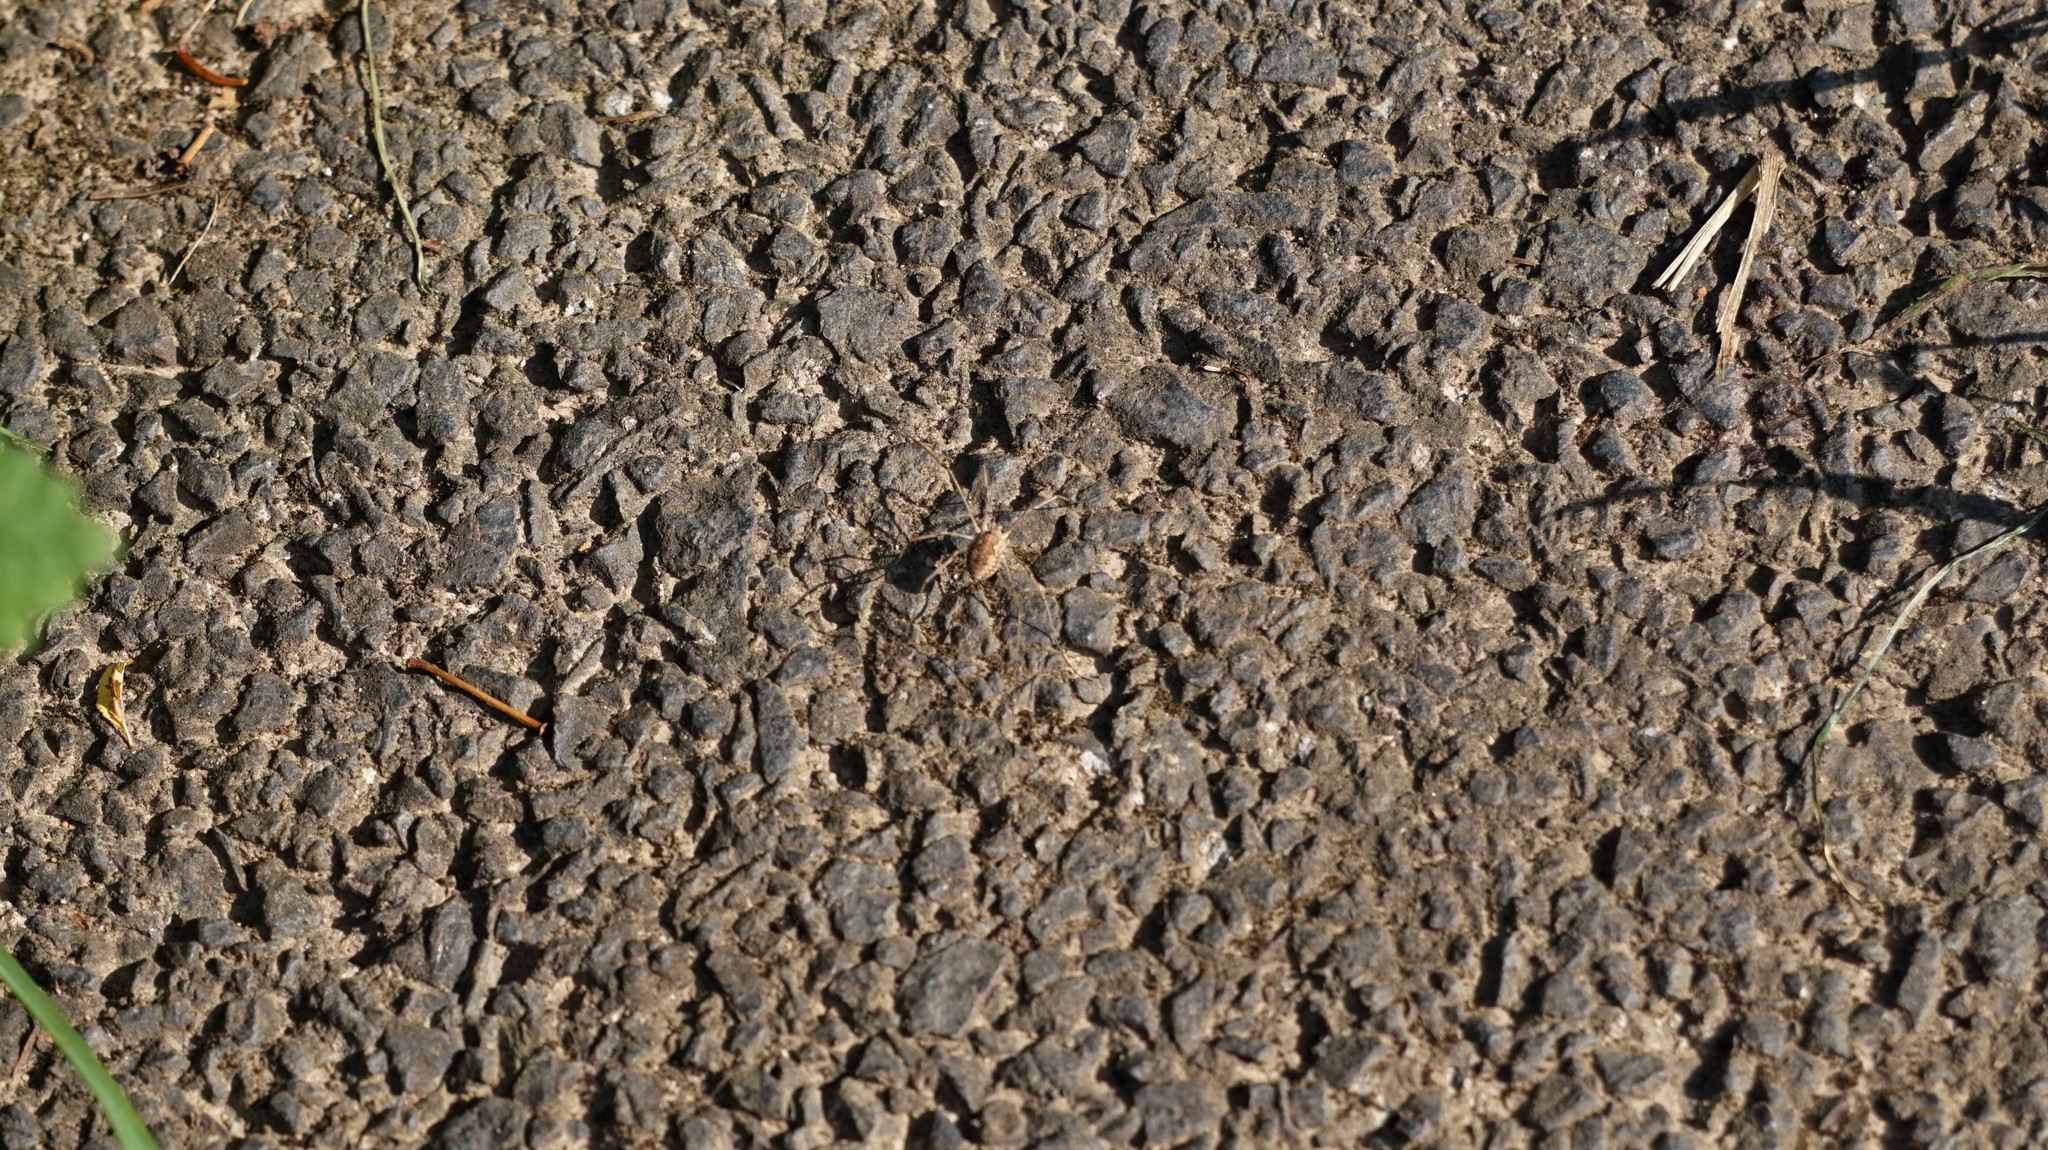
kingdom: Animalia
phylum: Arthropoda
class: Arachnida
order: Opiliones
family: Phalangiidae
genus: Phalangium
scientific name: Phalangium opilio
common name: Daddy longleg
